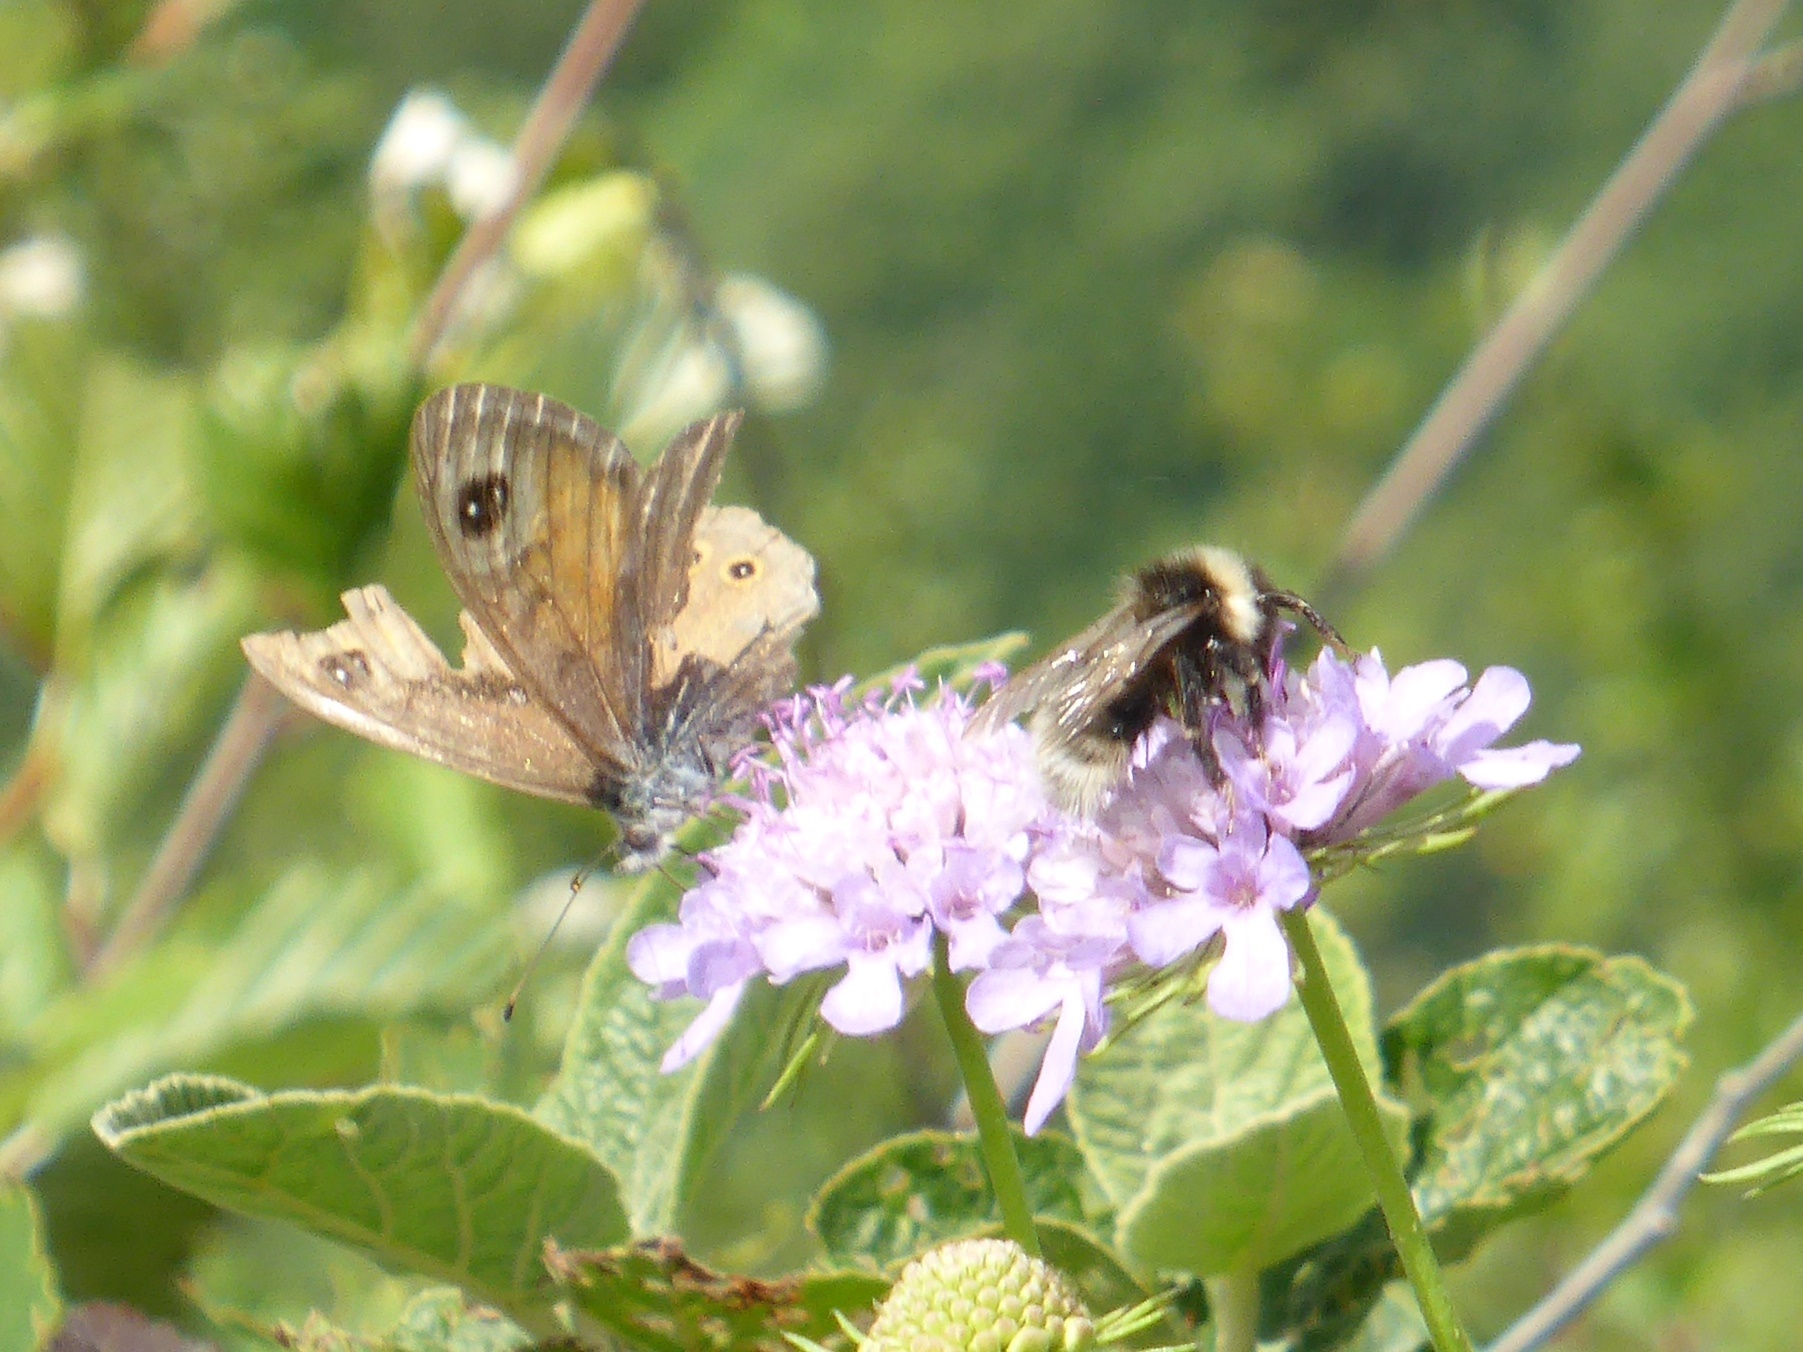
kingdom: Animalia
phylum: Arthropoda
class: Insecta
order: Lepidoptera
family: Nymphalidae
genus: Pararge
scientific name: Pararge Lasiommata maera
